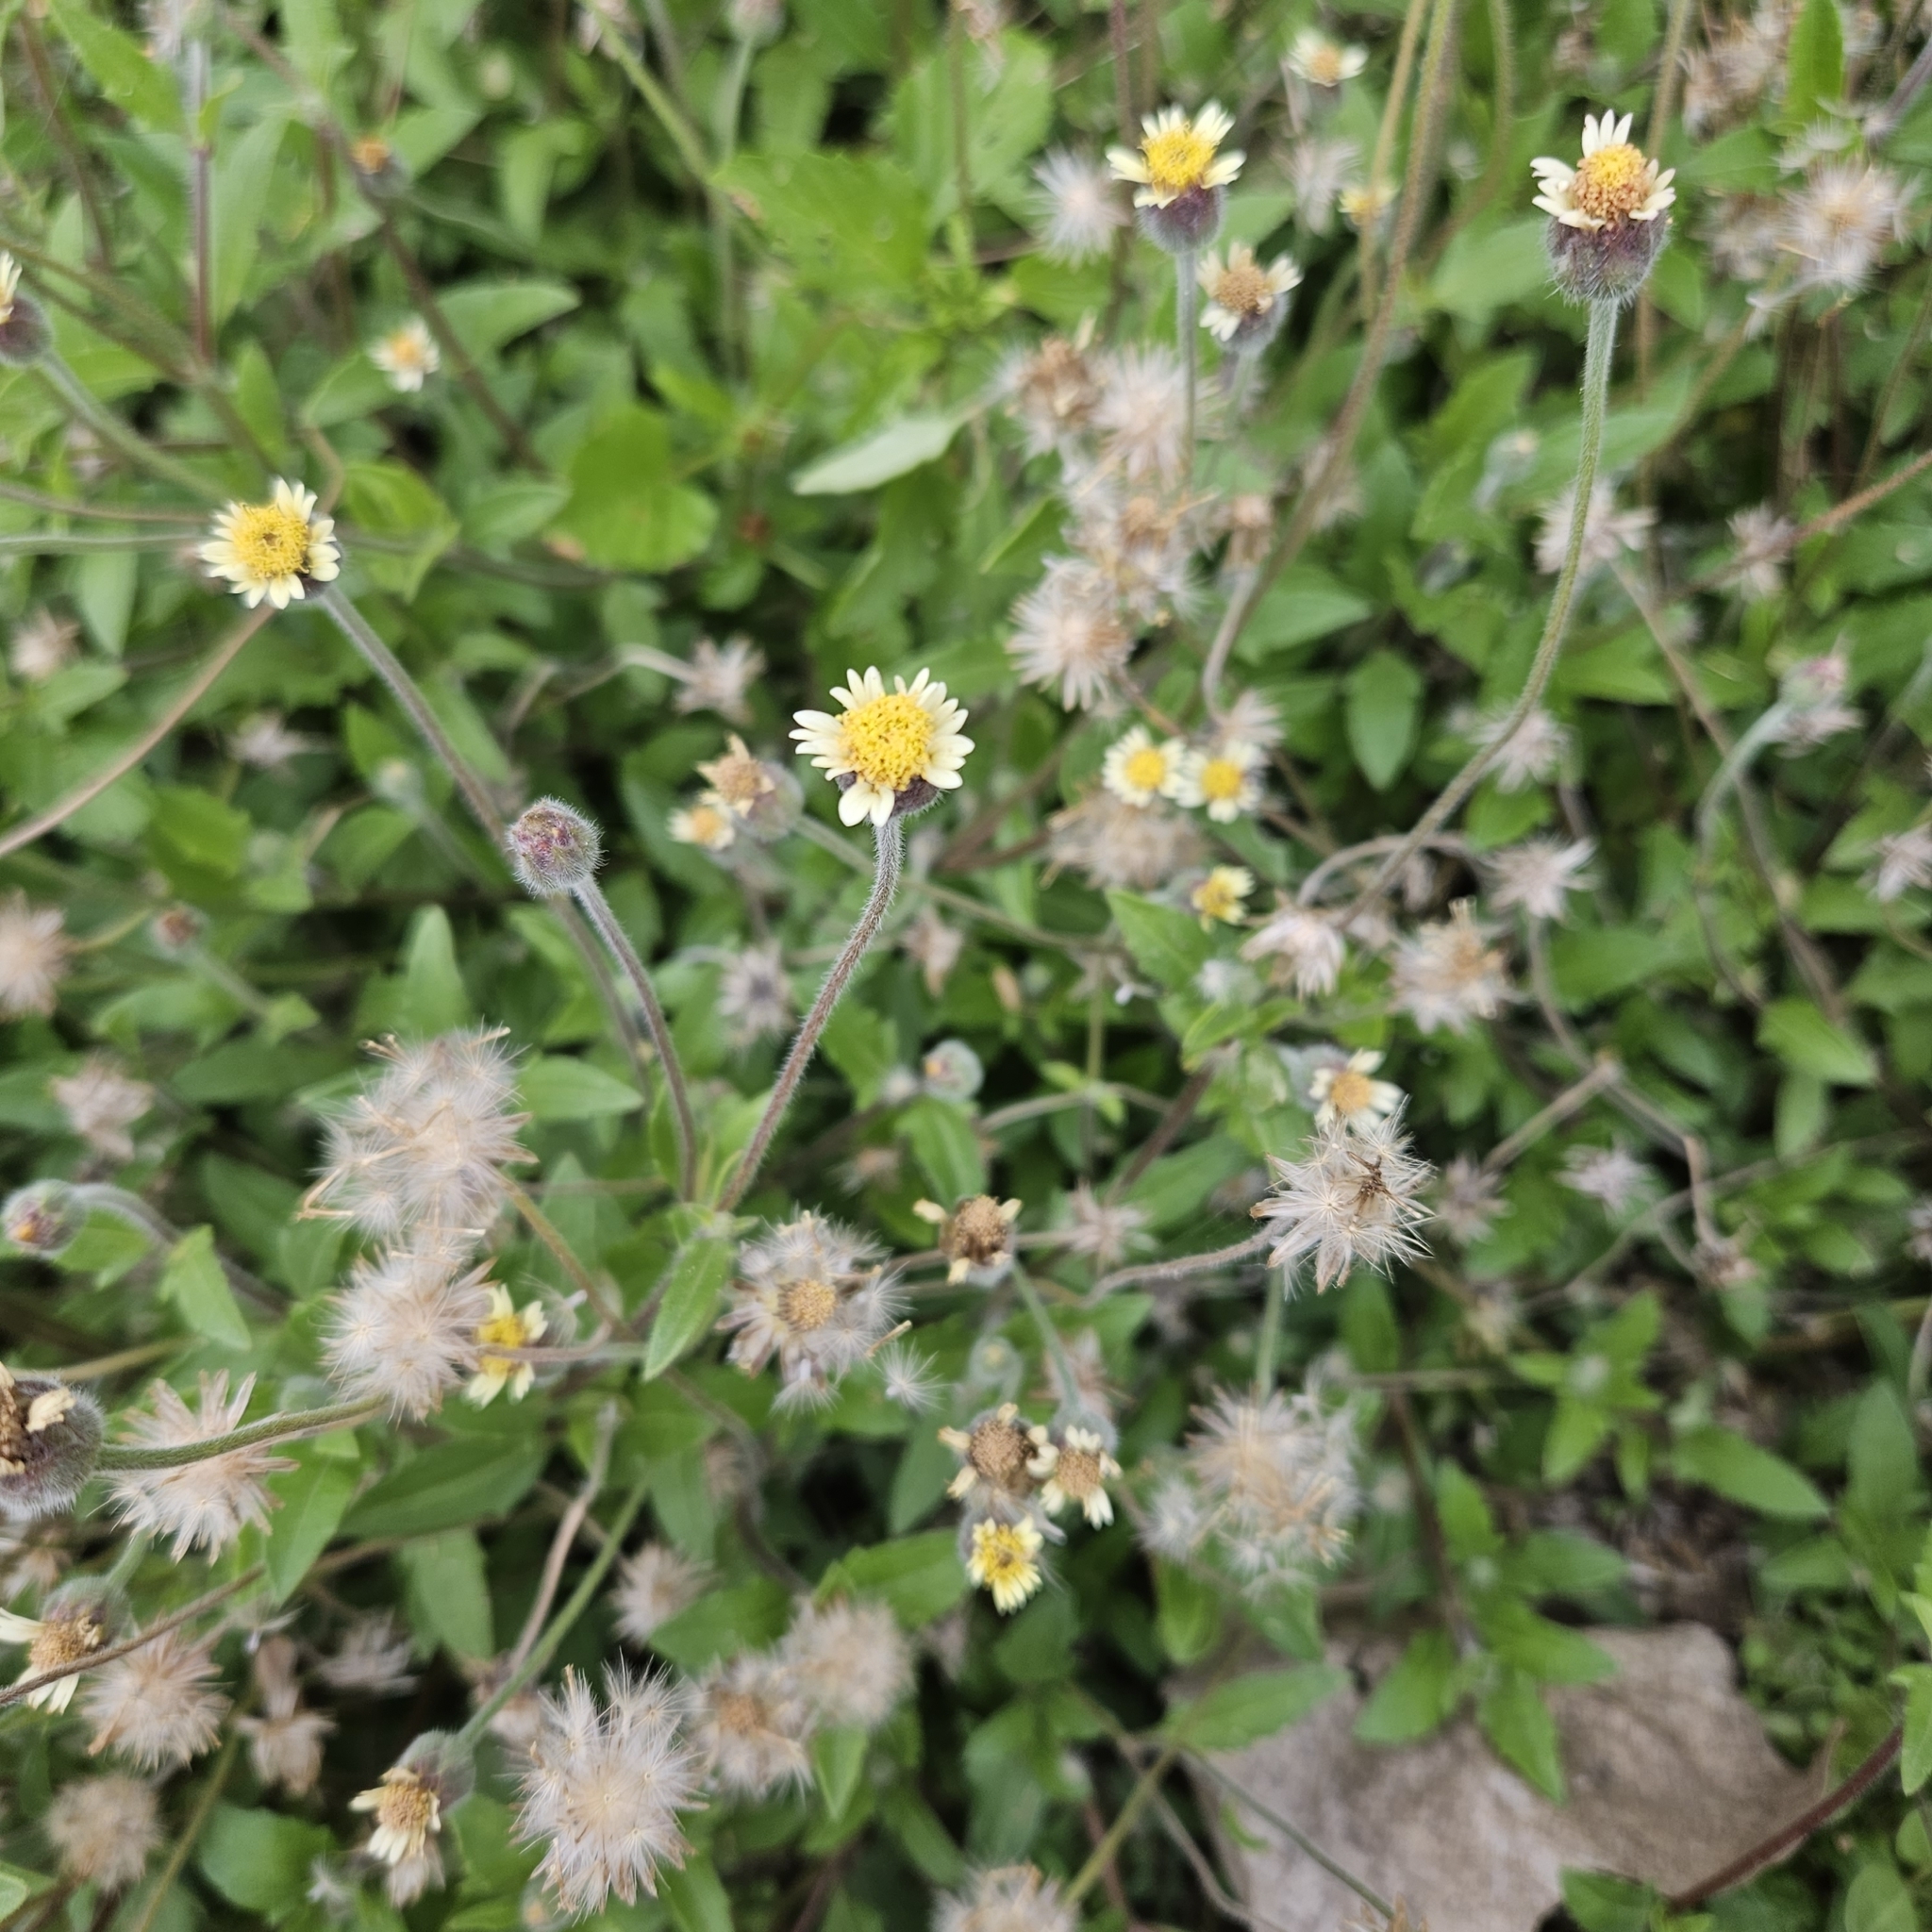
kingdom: Plantae
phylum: Tracheophyta
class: Magnoliopsida
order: Asterales
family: Asteraceae
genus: Tridax
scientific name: Tridax procumbens
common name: Coatbuttons
